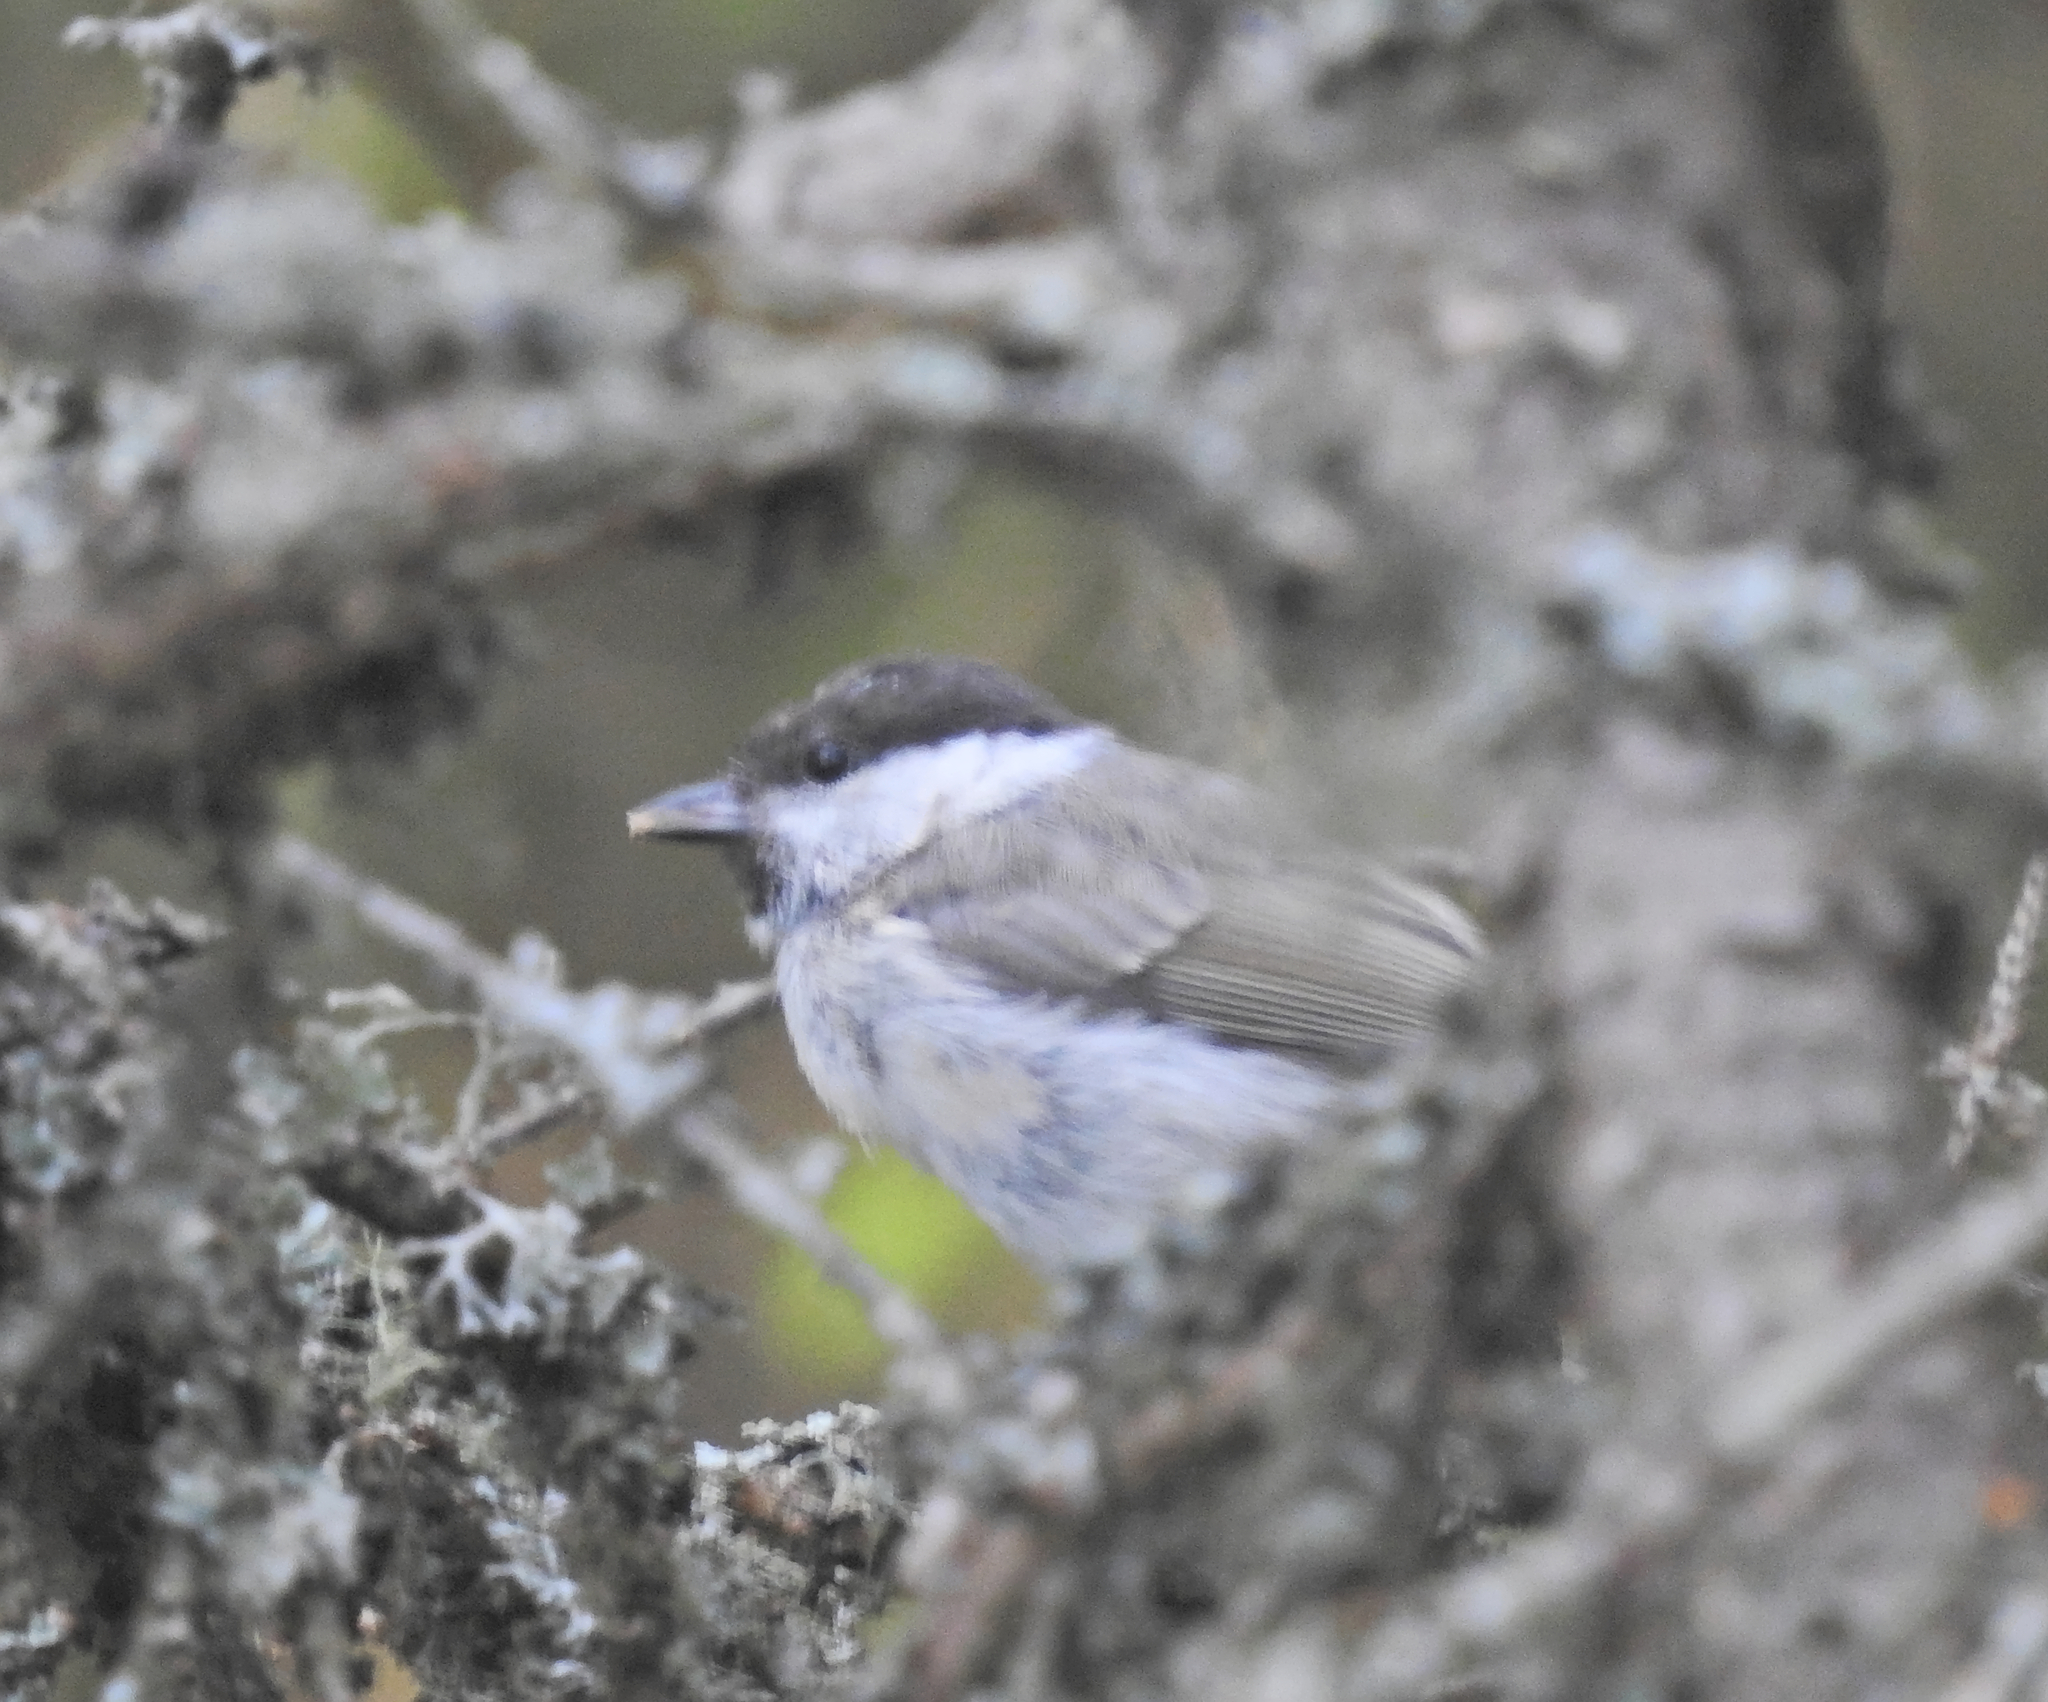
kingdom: Animalia
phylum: Chordata
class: Aves
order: Passeriformes
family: Paridae
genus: Poecile
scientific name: Poecile palustris
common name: Marsh tit
